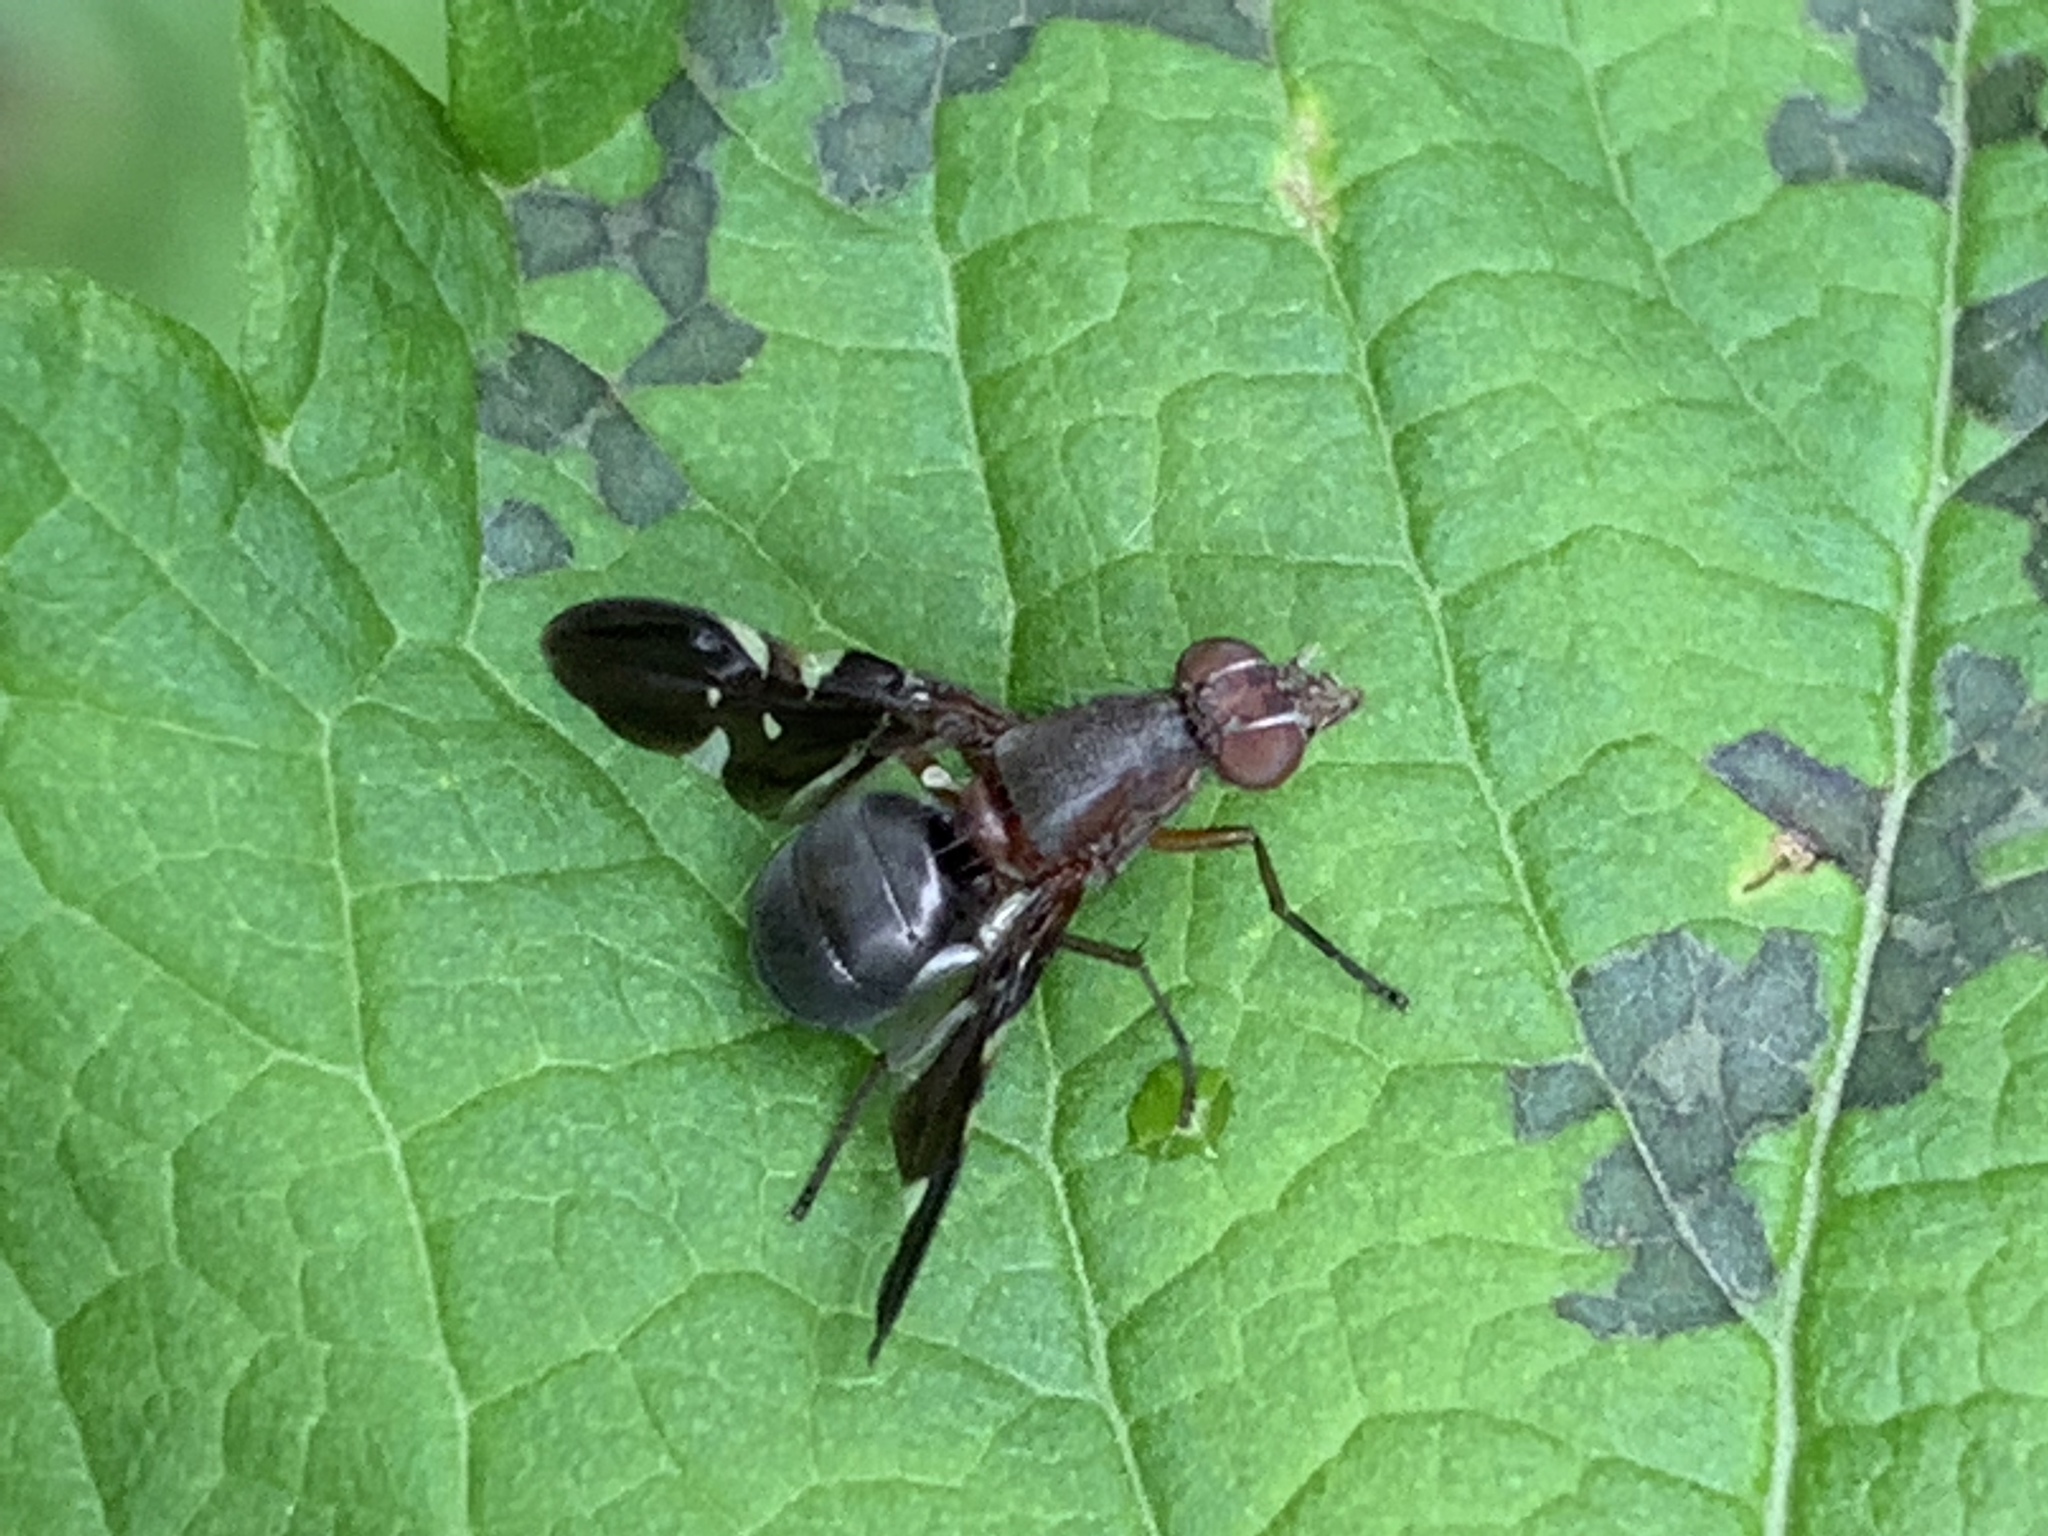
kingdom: Animalia
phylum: Arthropoda
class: Insecta
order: Diptera
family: Ulidiidae
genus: Delphinia
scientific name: Delphinia picta
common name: Common picture-winged fly
